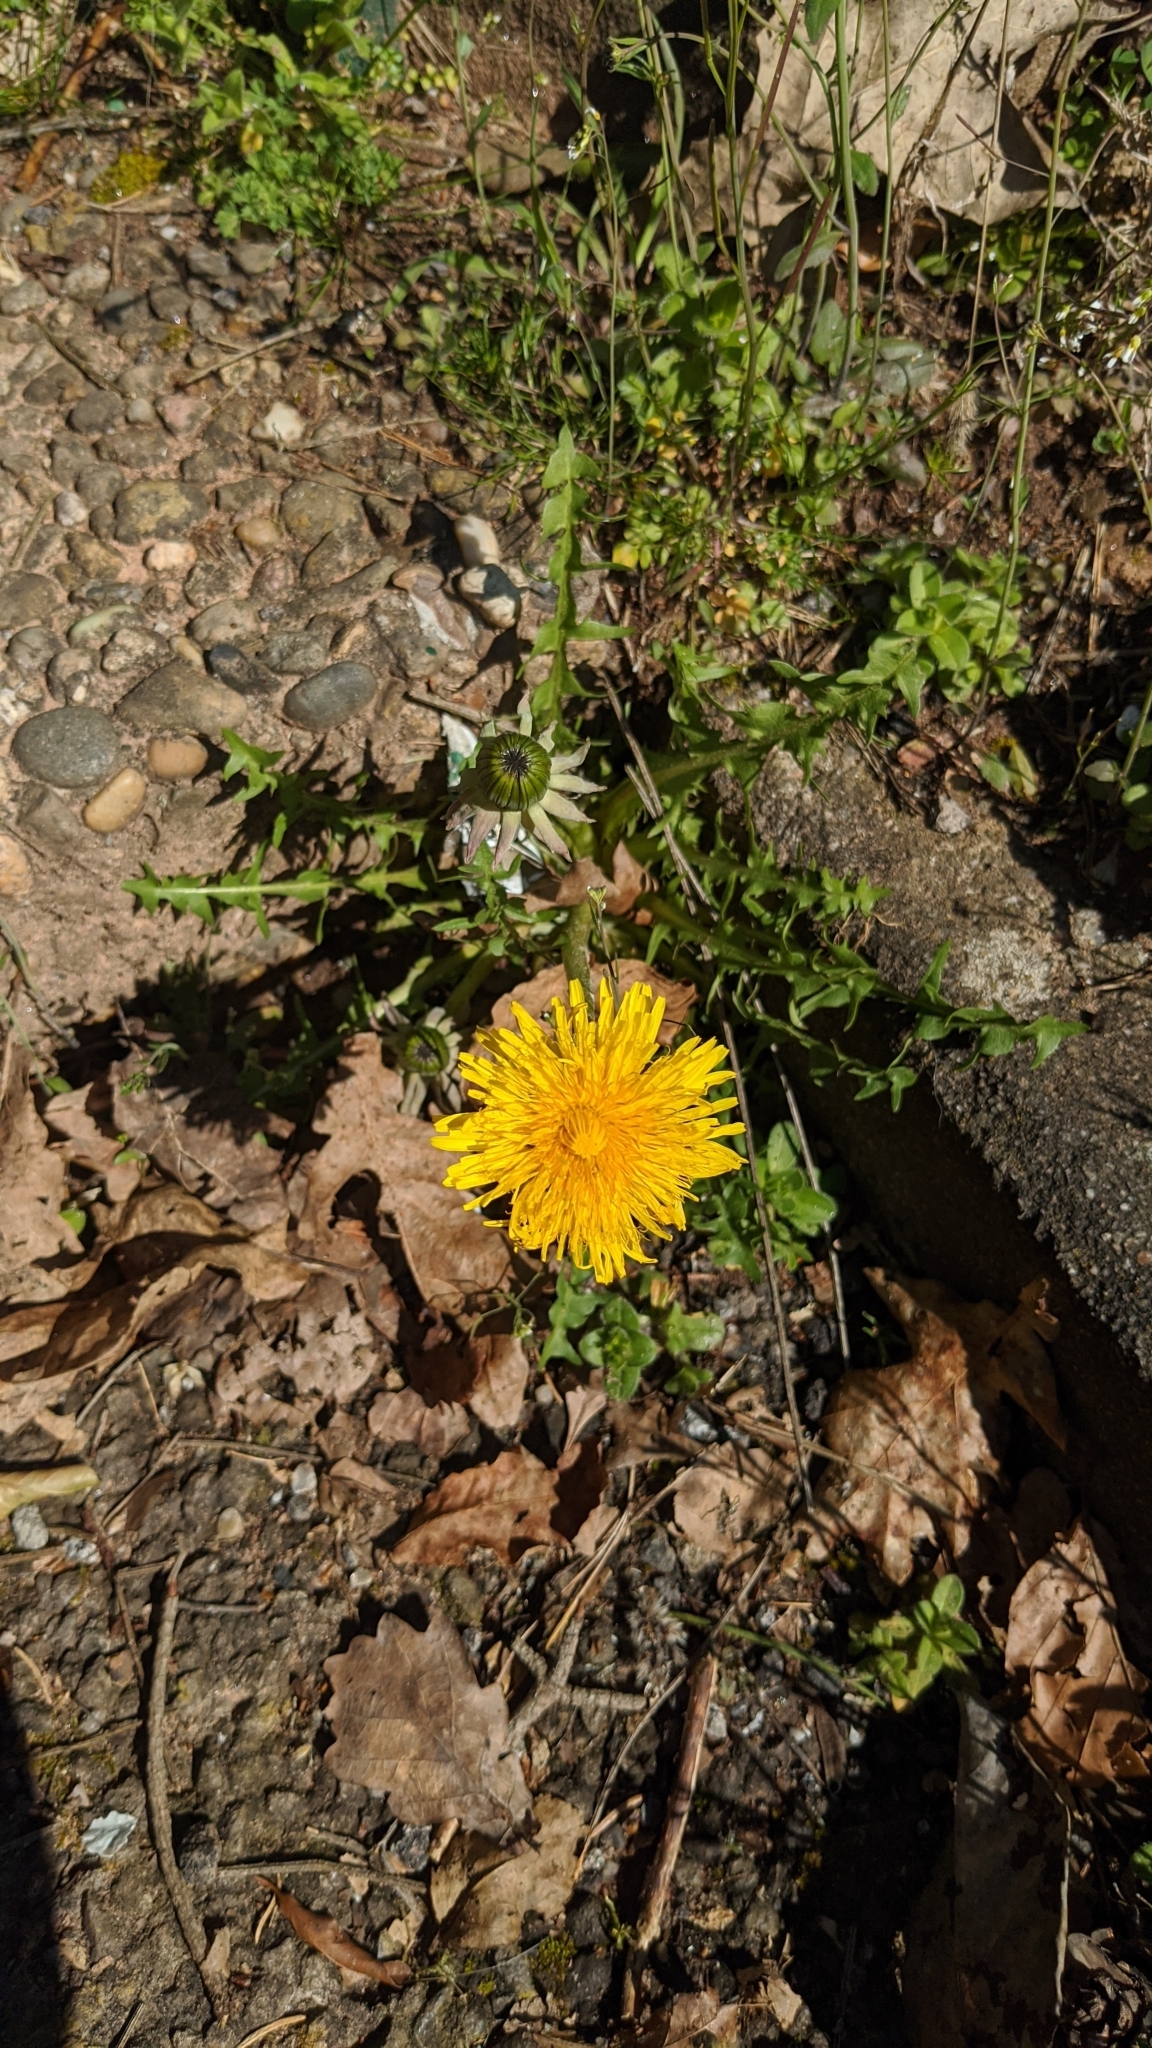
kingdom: Plantae
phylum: Tracheophyta
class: Magnoliopsida
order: Asterales
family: Asteraceae
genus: Taraxacum
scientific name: Taraxacum officinale
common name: Common dandelion
